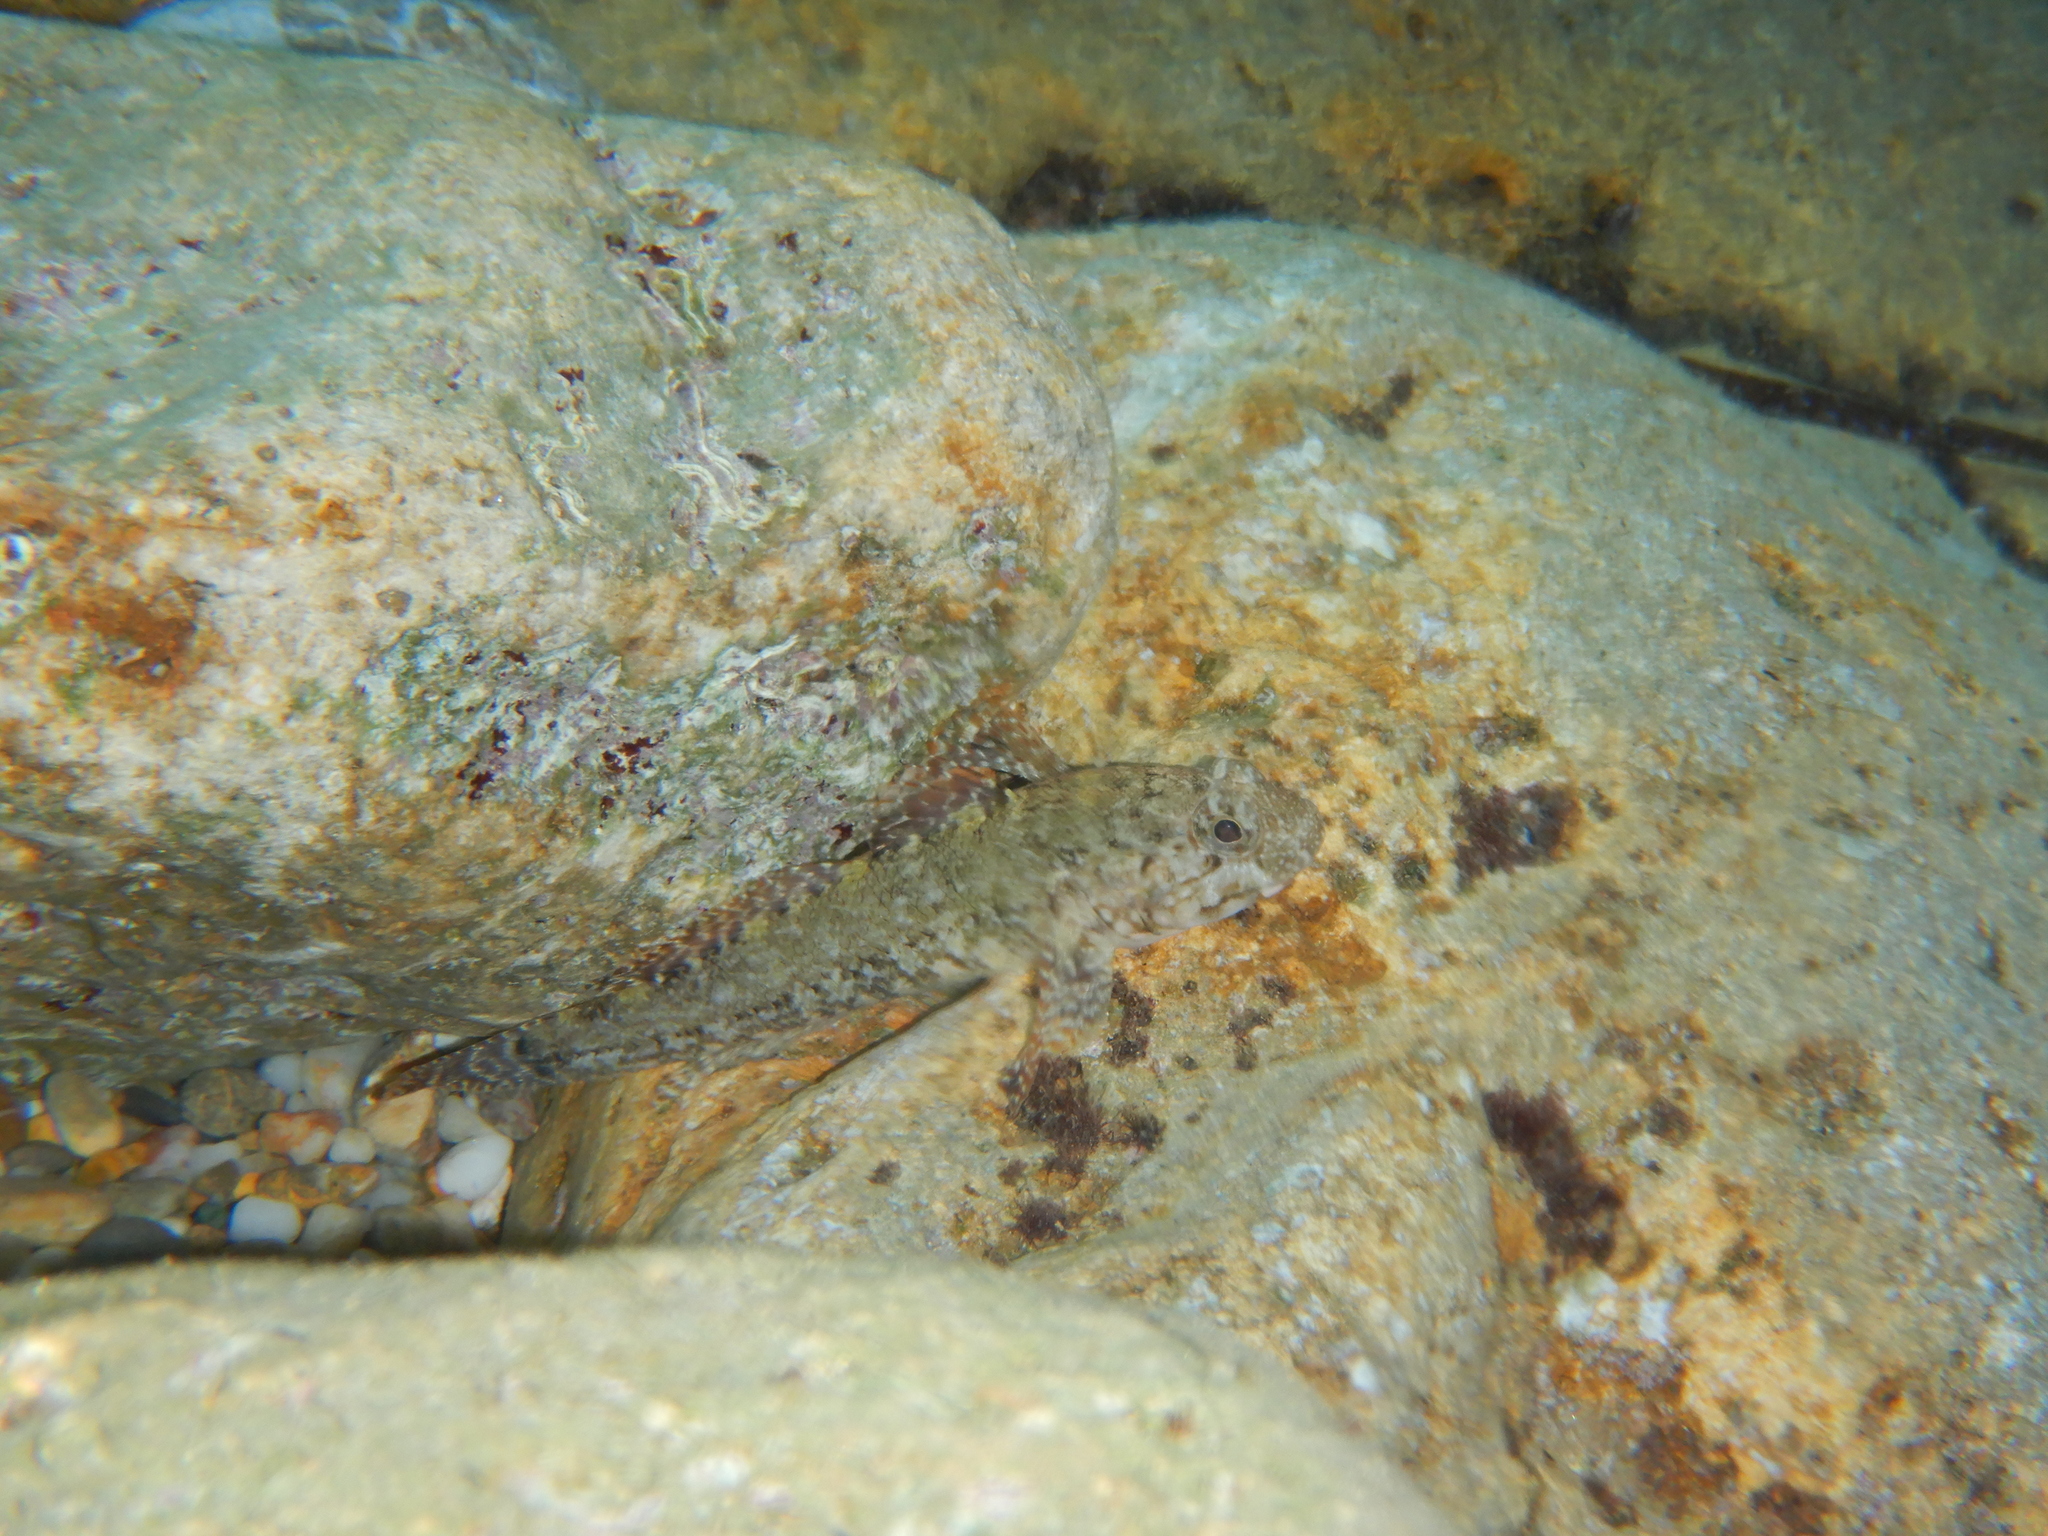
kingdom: Animalia
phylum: Chordata
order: Perciformes
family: Gobiidae
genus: Gobius
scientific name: Gobius paganellus
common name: Rock goby
